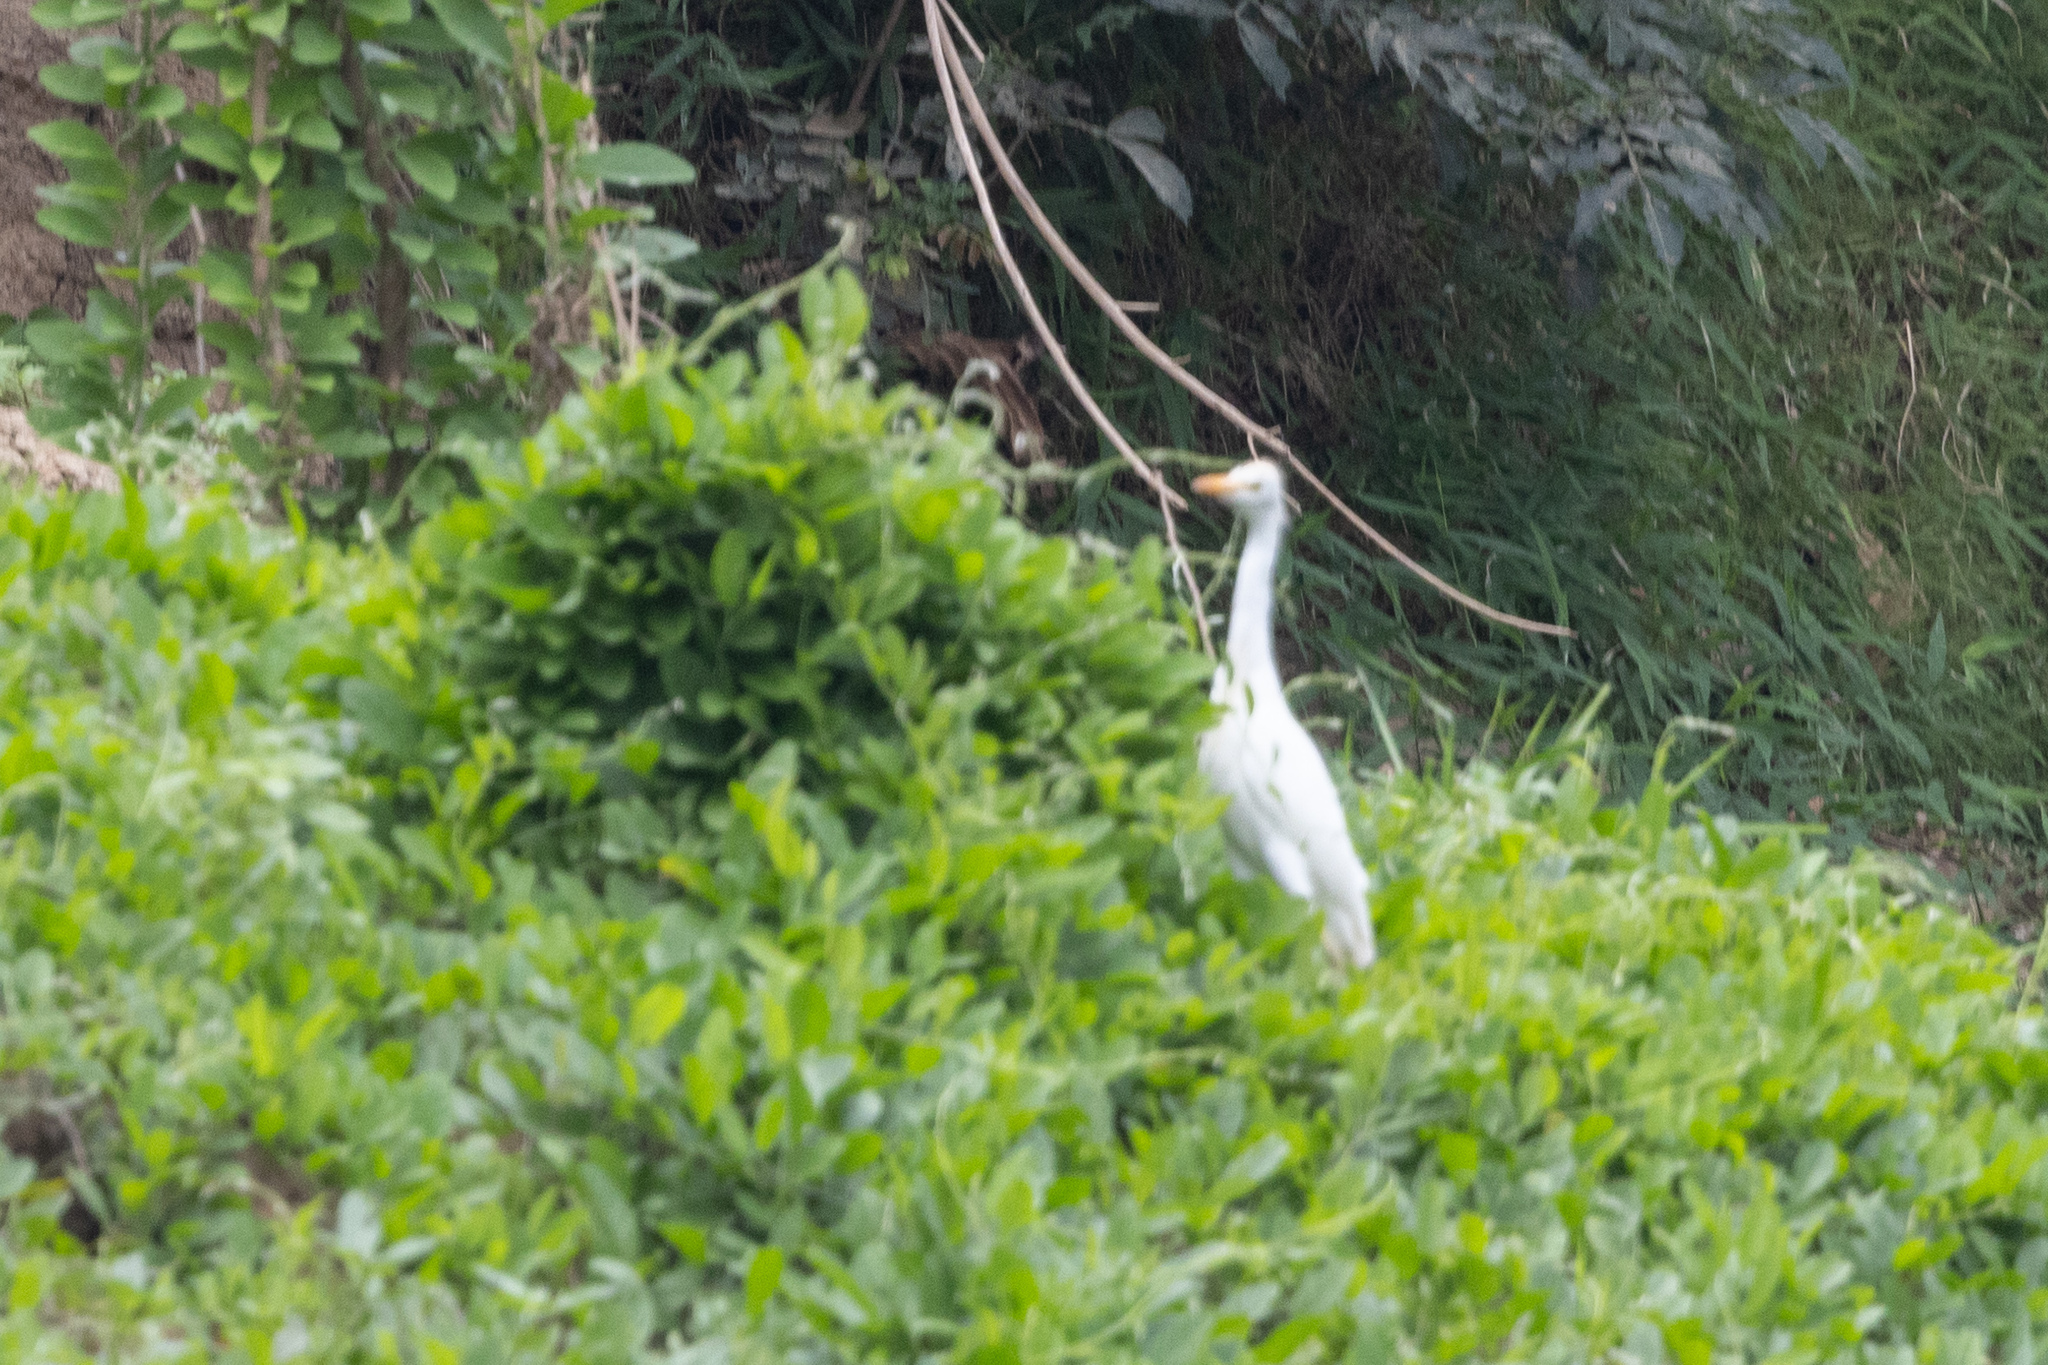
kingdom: Animalia
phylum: Chordata
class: Aves
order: Pelecaniformes
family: Ardeidae
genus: Bubulcus
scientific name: Bubulcus ibis
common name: Cattle egret
